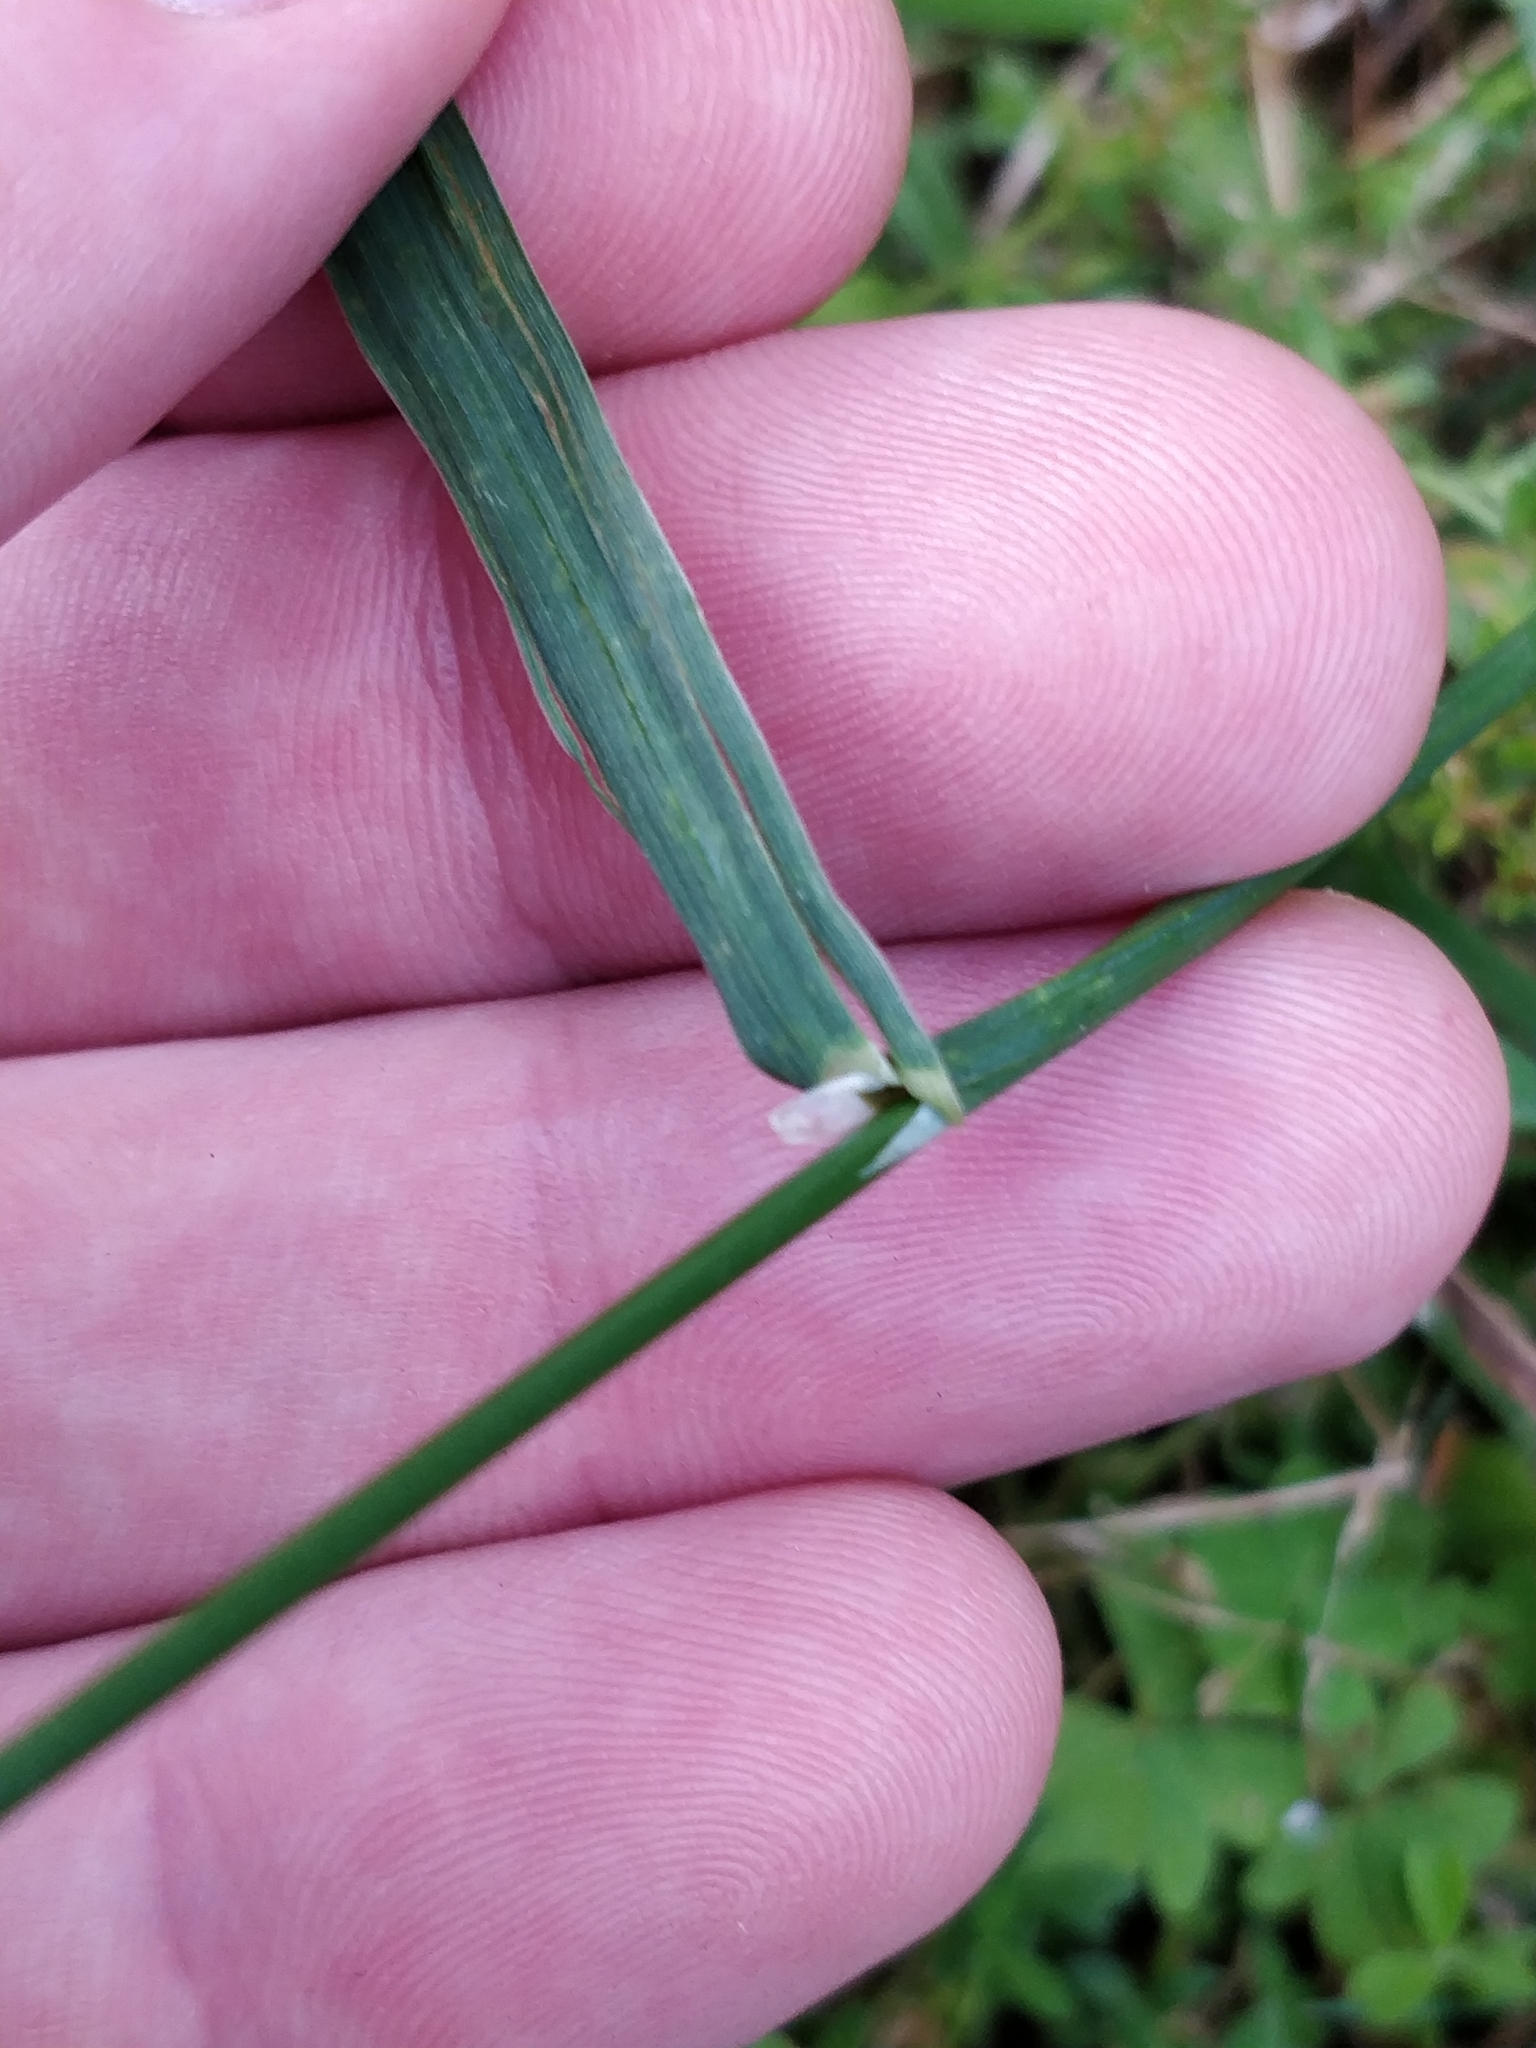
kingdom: Plantae
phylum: Tracheophyta
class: Liliopsida
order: Poales
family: Poaceae
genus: Bromus
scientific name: Bromus catharticus
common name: Rescuegrass
